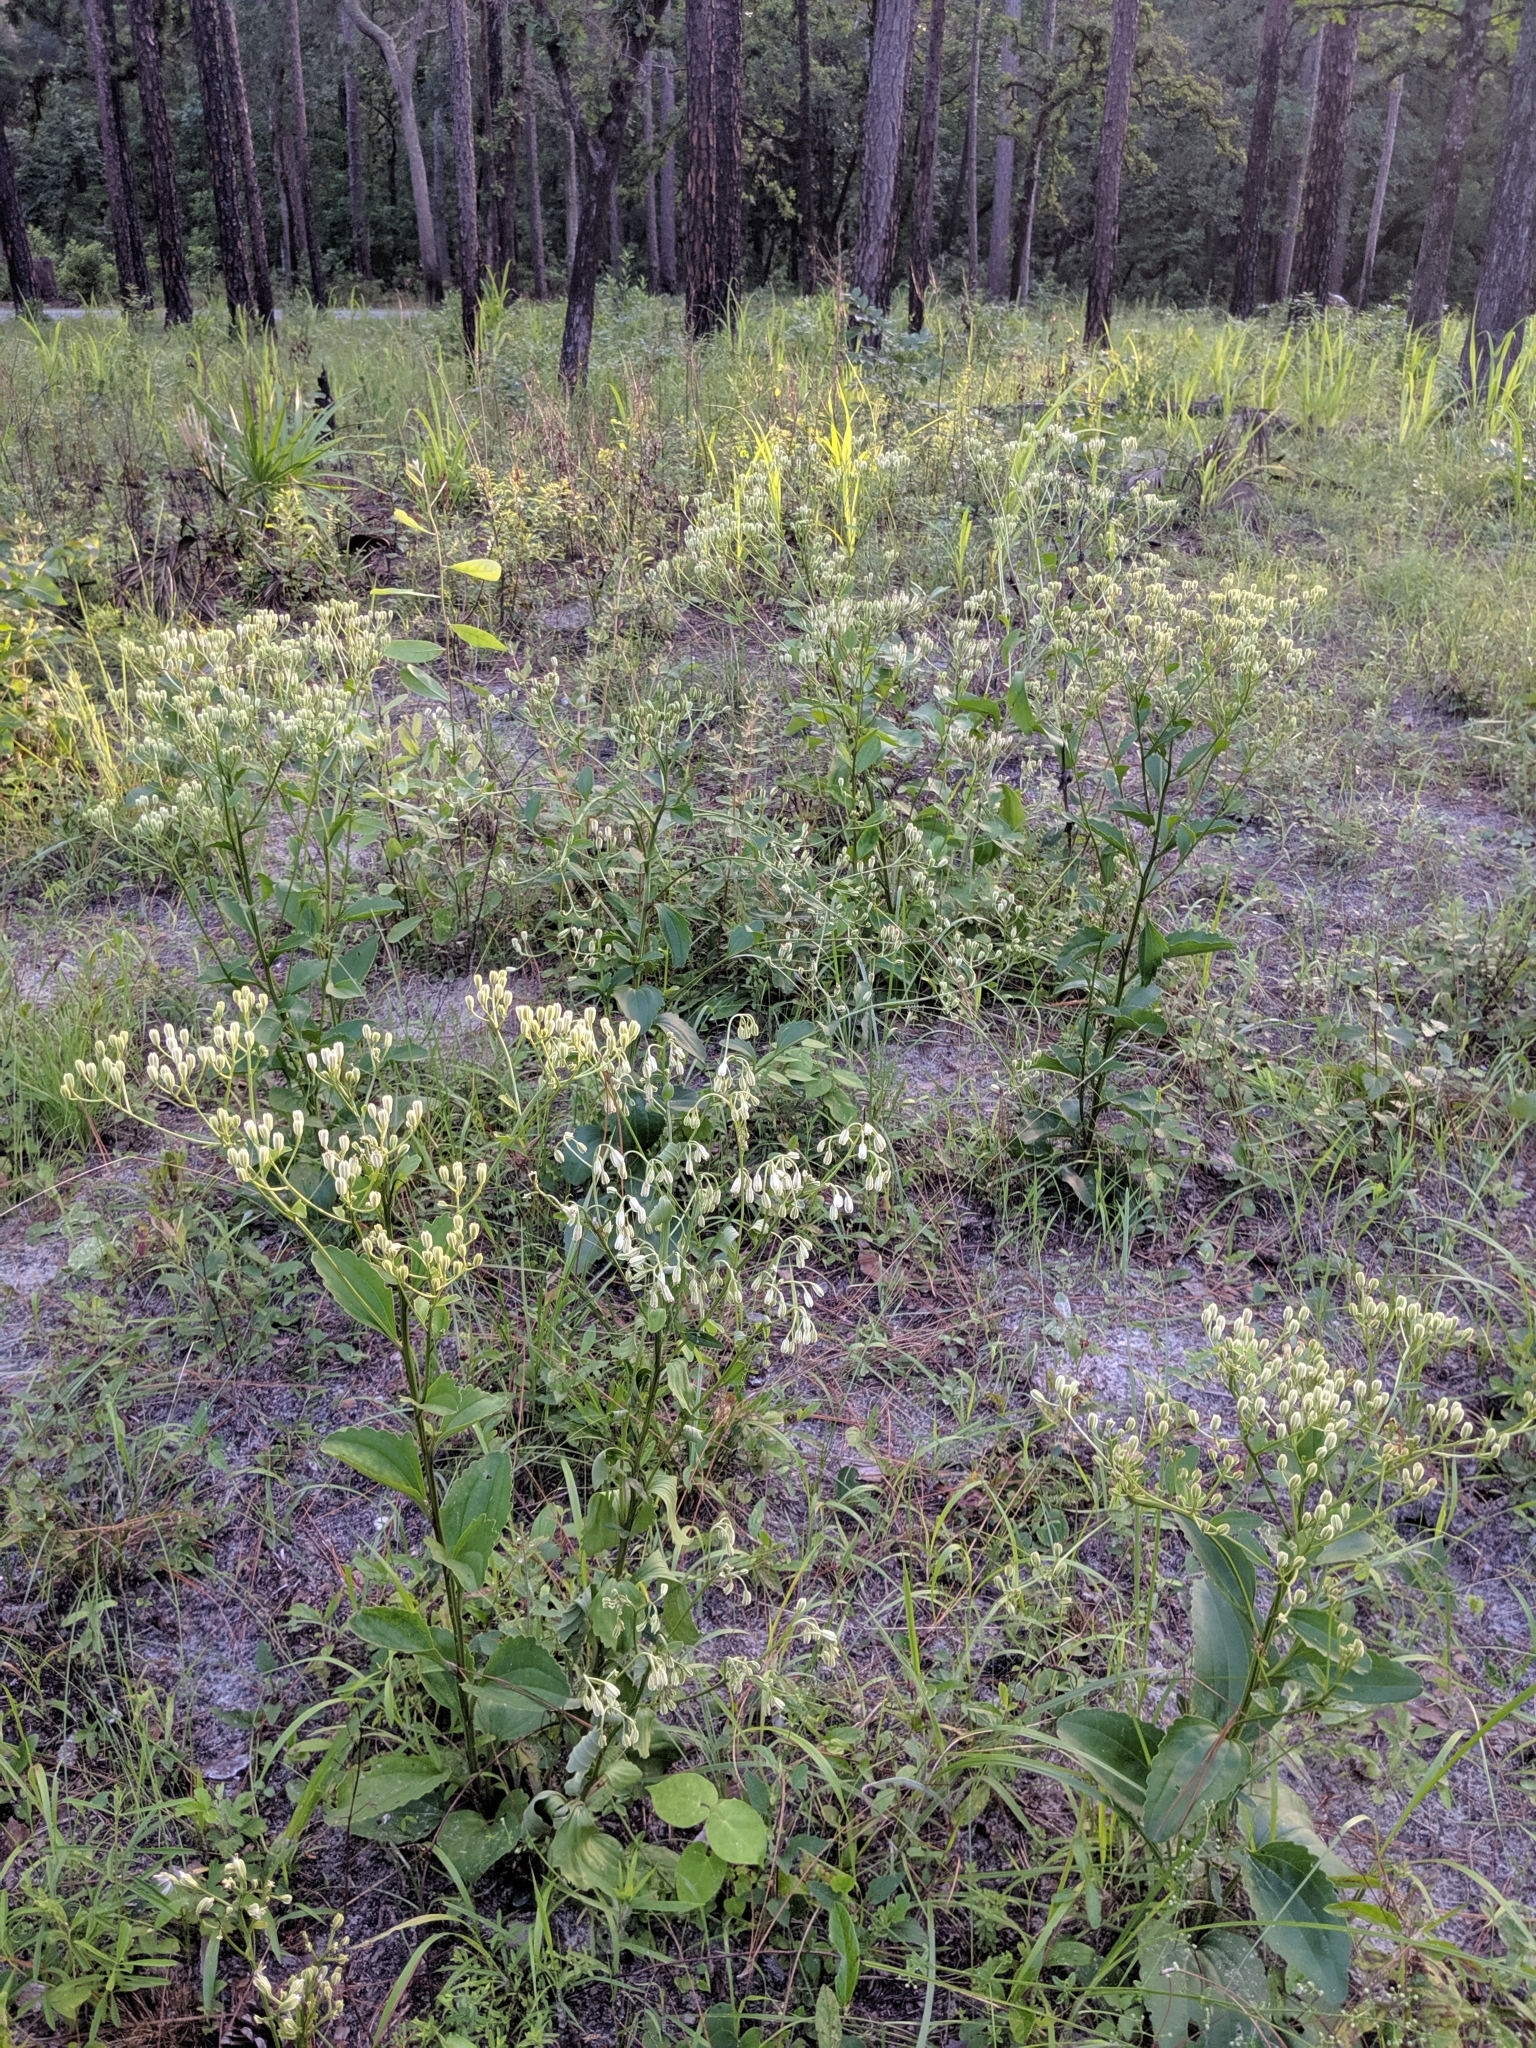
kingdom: Plantae
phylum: Tracheophyta
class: Magnoliopsida
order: Asterales
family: Asteraceae
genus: Arnoglossum
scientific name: Arnoglossum floridanum
